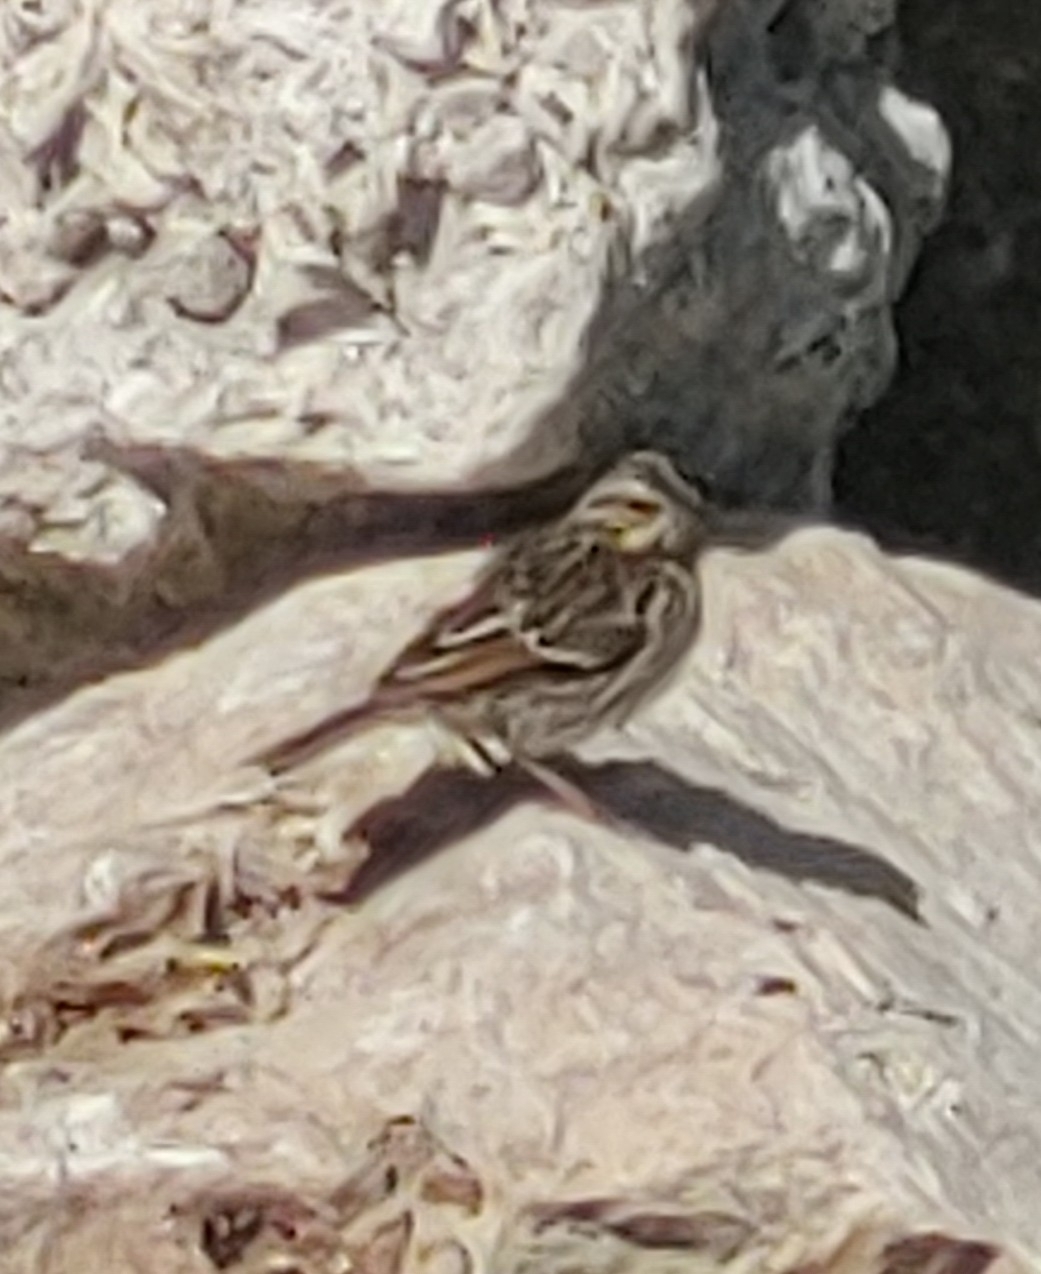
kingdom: Animalia
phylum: Chordata
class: Aves
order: Passeriformes
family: Passerellidae
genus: Passerculus
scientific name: Passerculus sandwichensis
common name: Savannah sparrow
